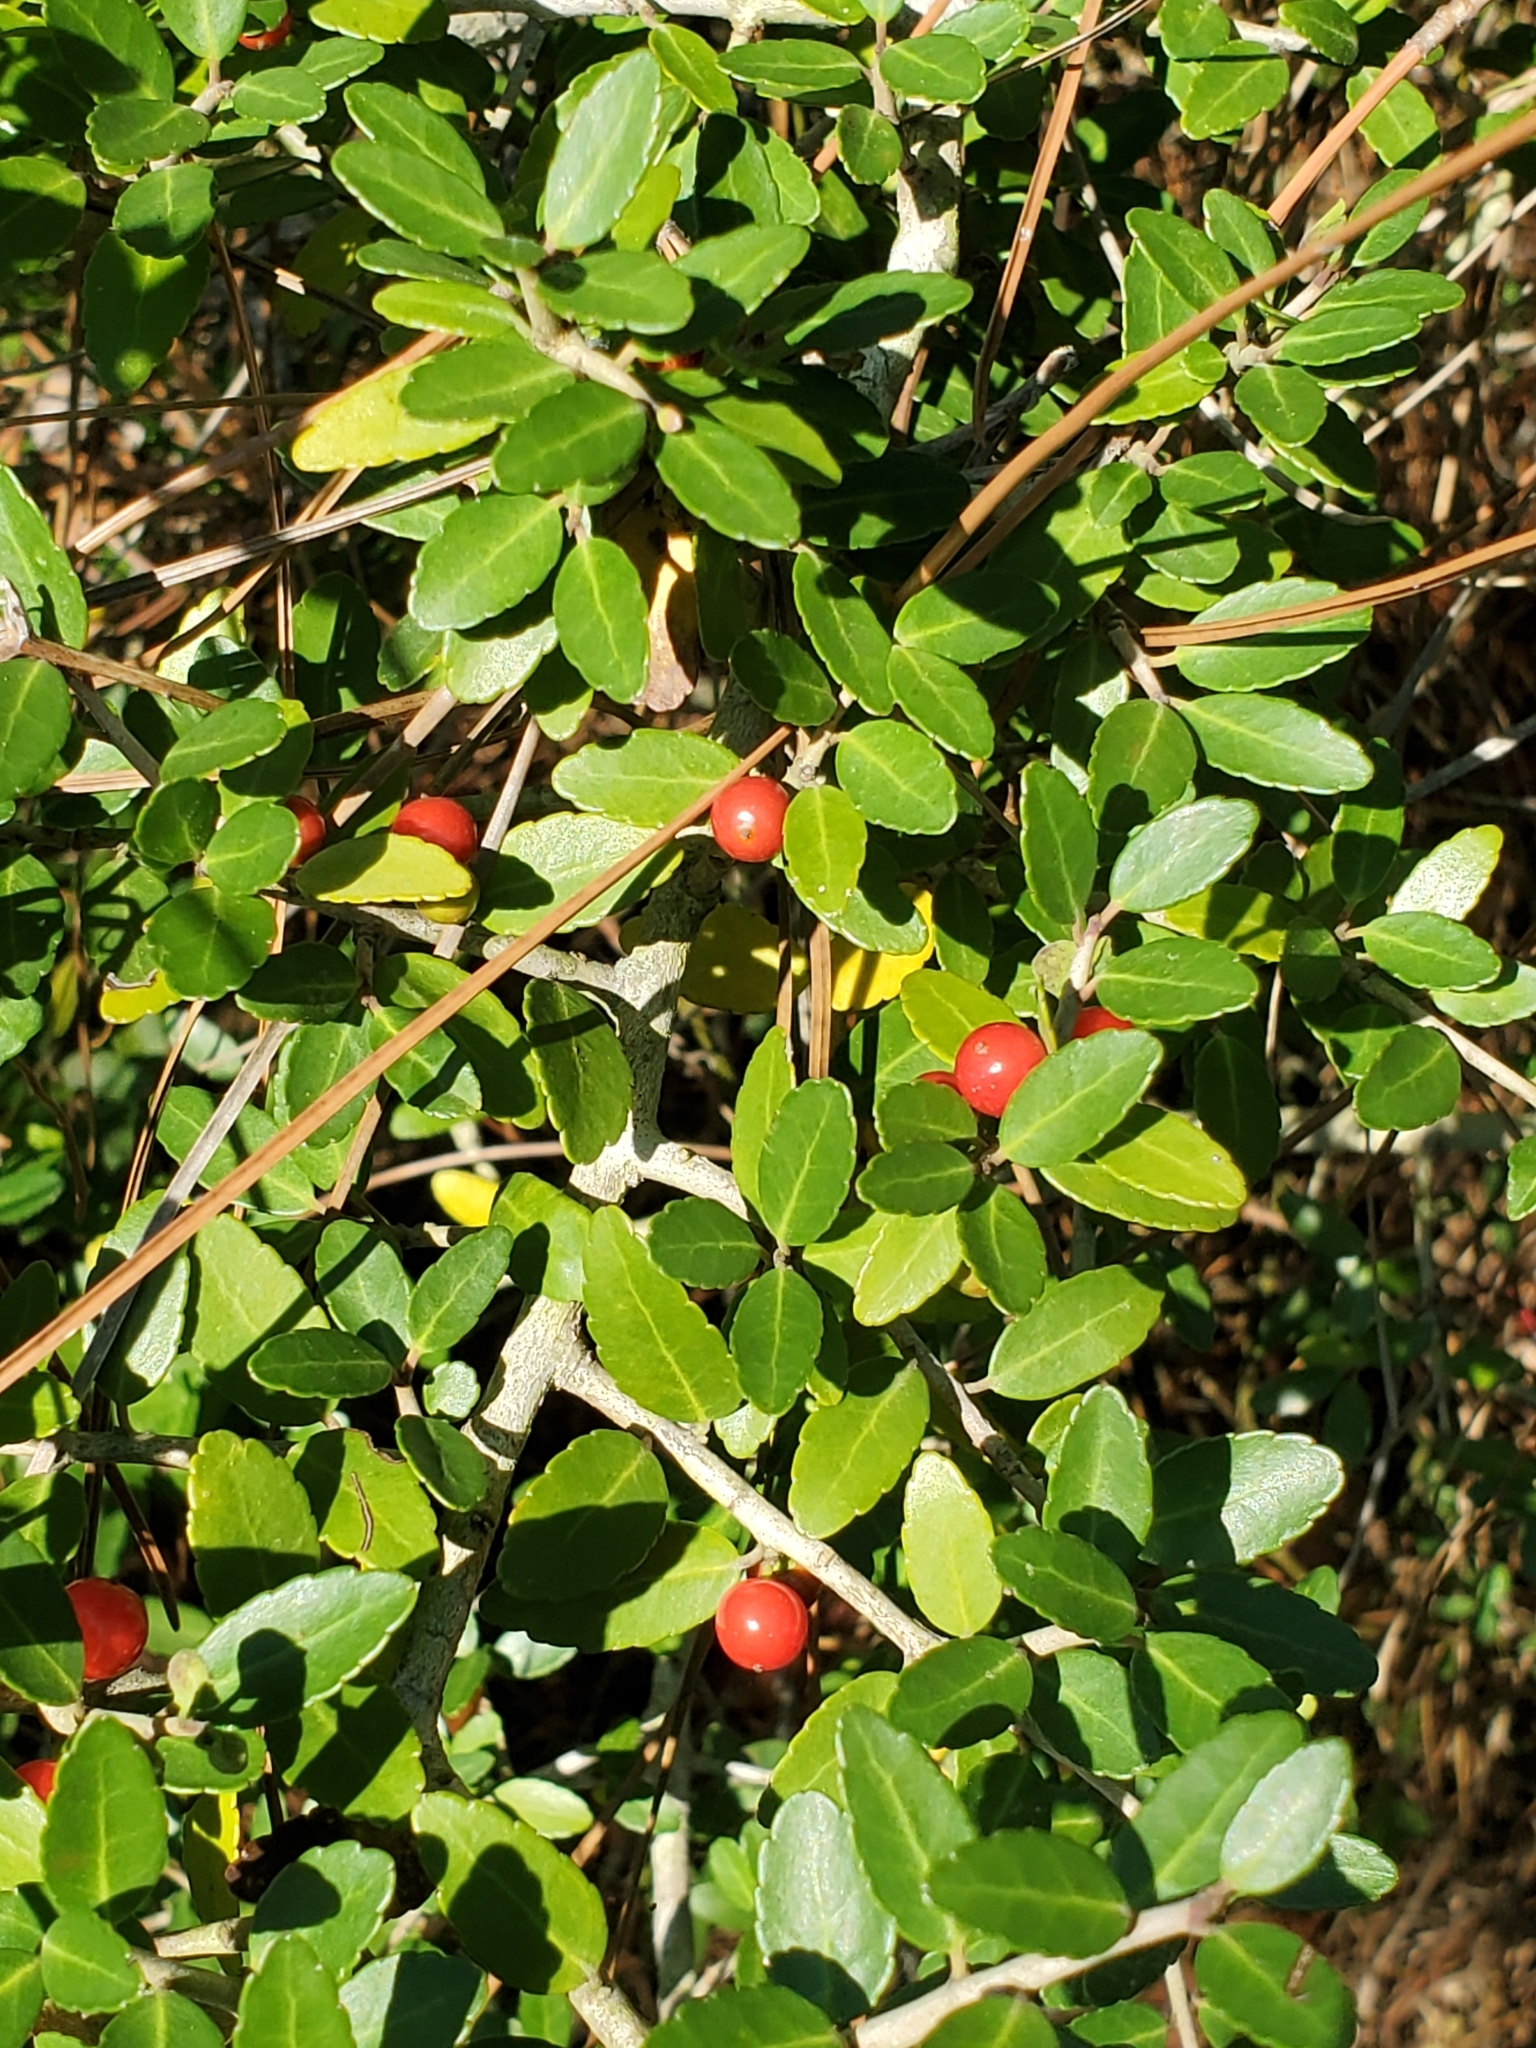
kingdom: Plantae
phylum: Tracheophyta
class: Magnoliopsida
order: Aquifoliales
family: Aquifoliaceae
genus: Ilex
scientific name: Ilex vomitoria
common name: Yaupon holly
